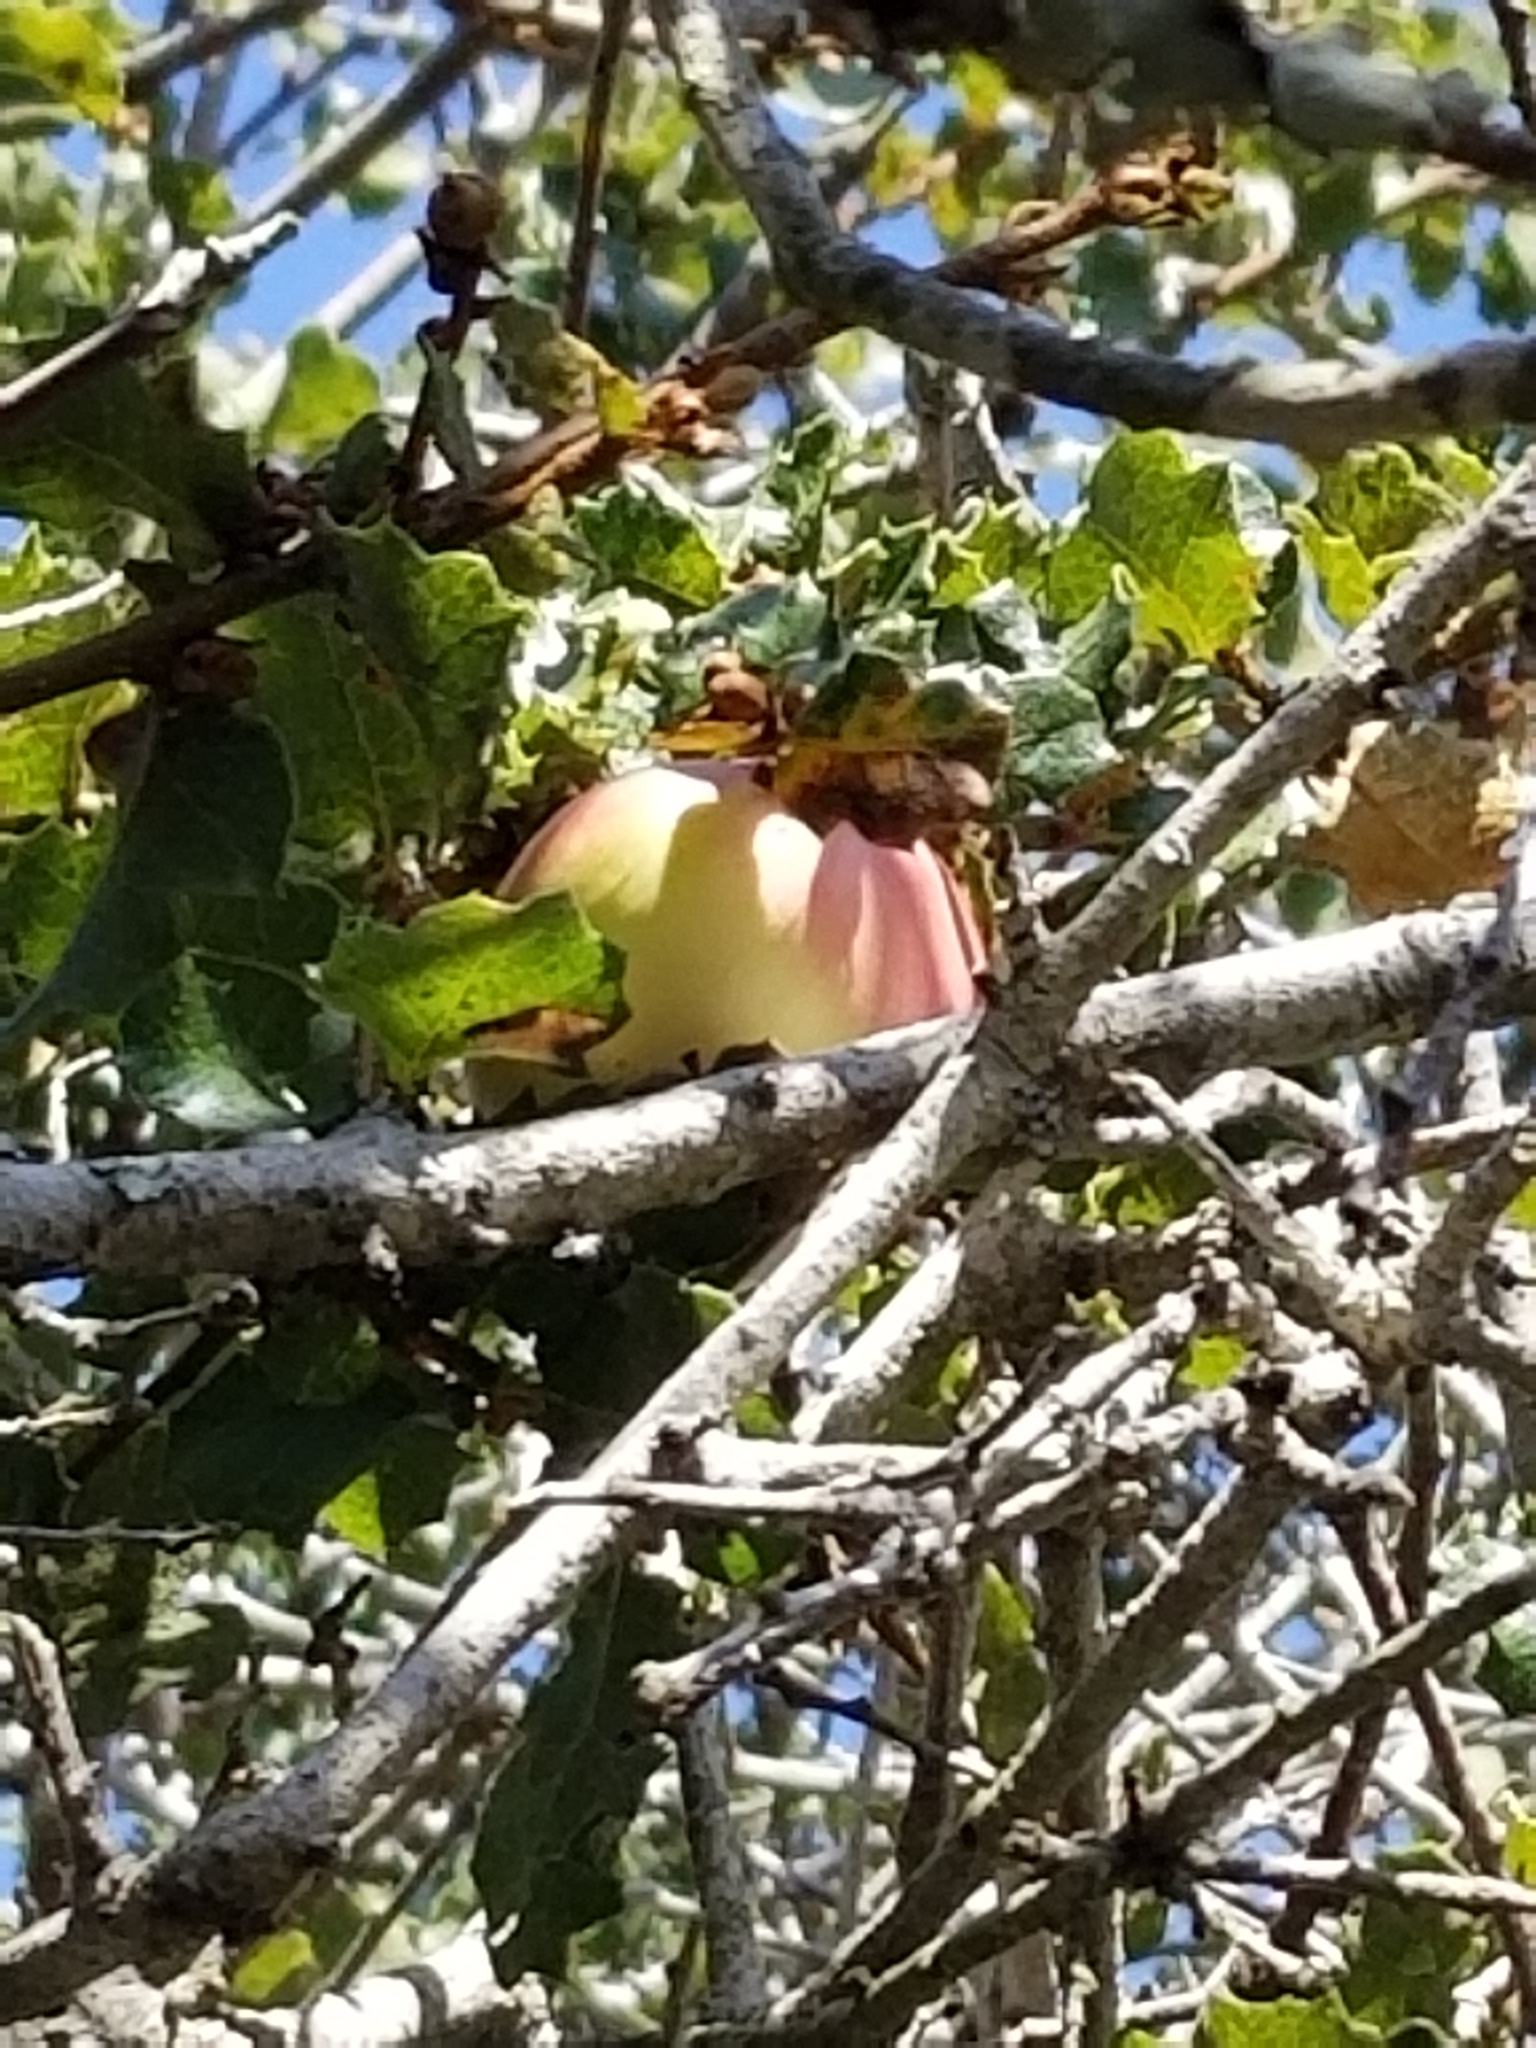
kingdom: Animalia
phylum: Arthropoda
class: Insecta
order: Hymenoptera
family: Cynipidae
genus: Andricus
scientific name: Andricus quercuscalifornicus
